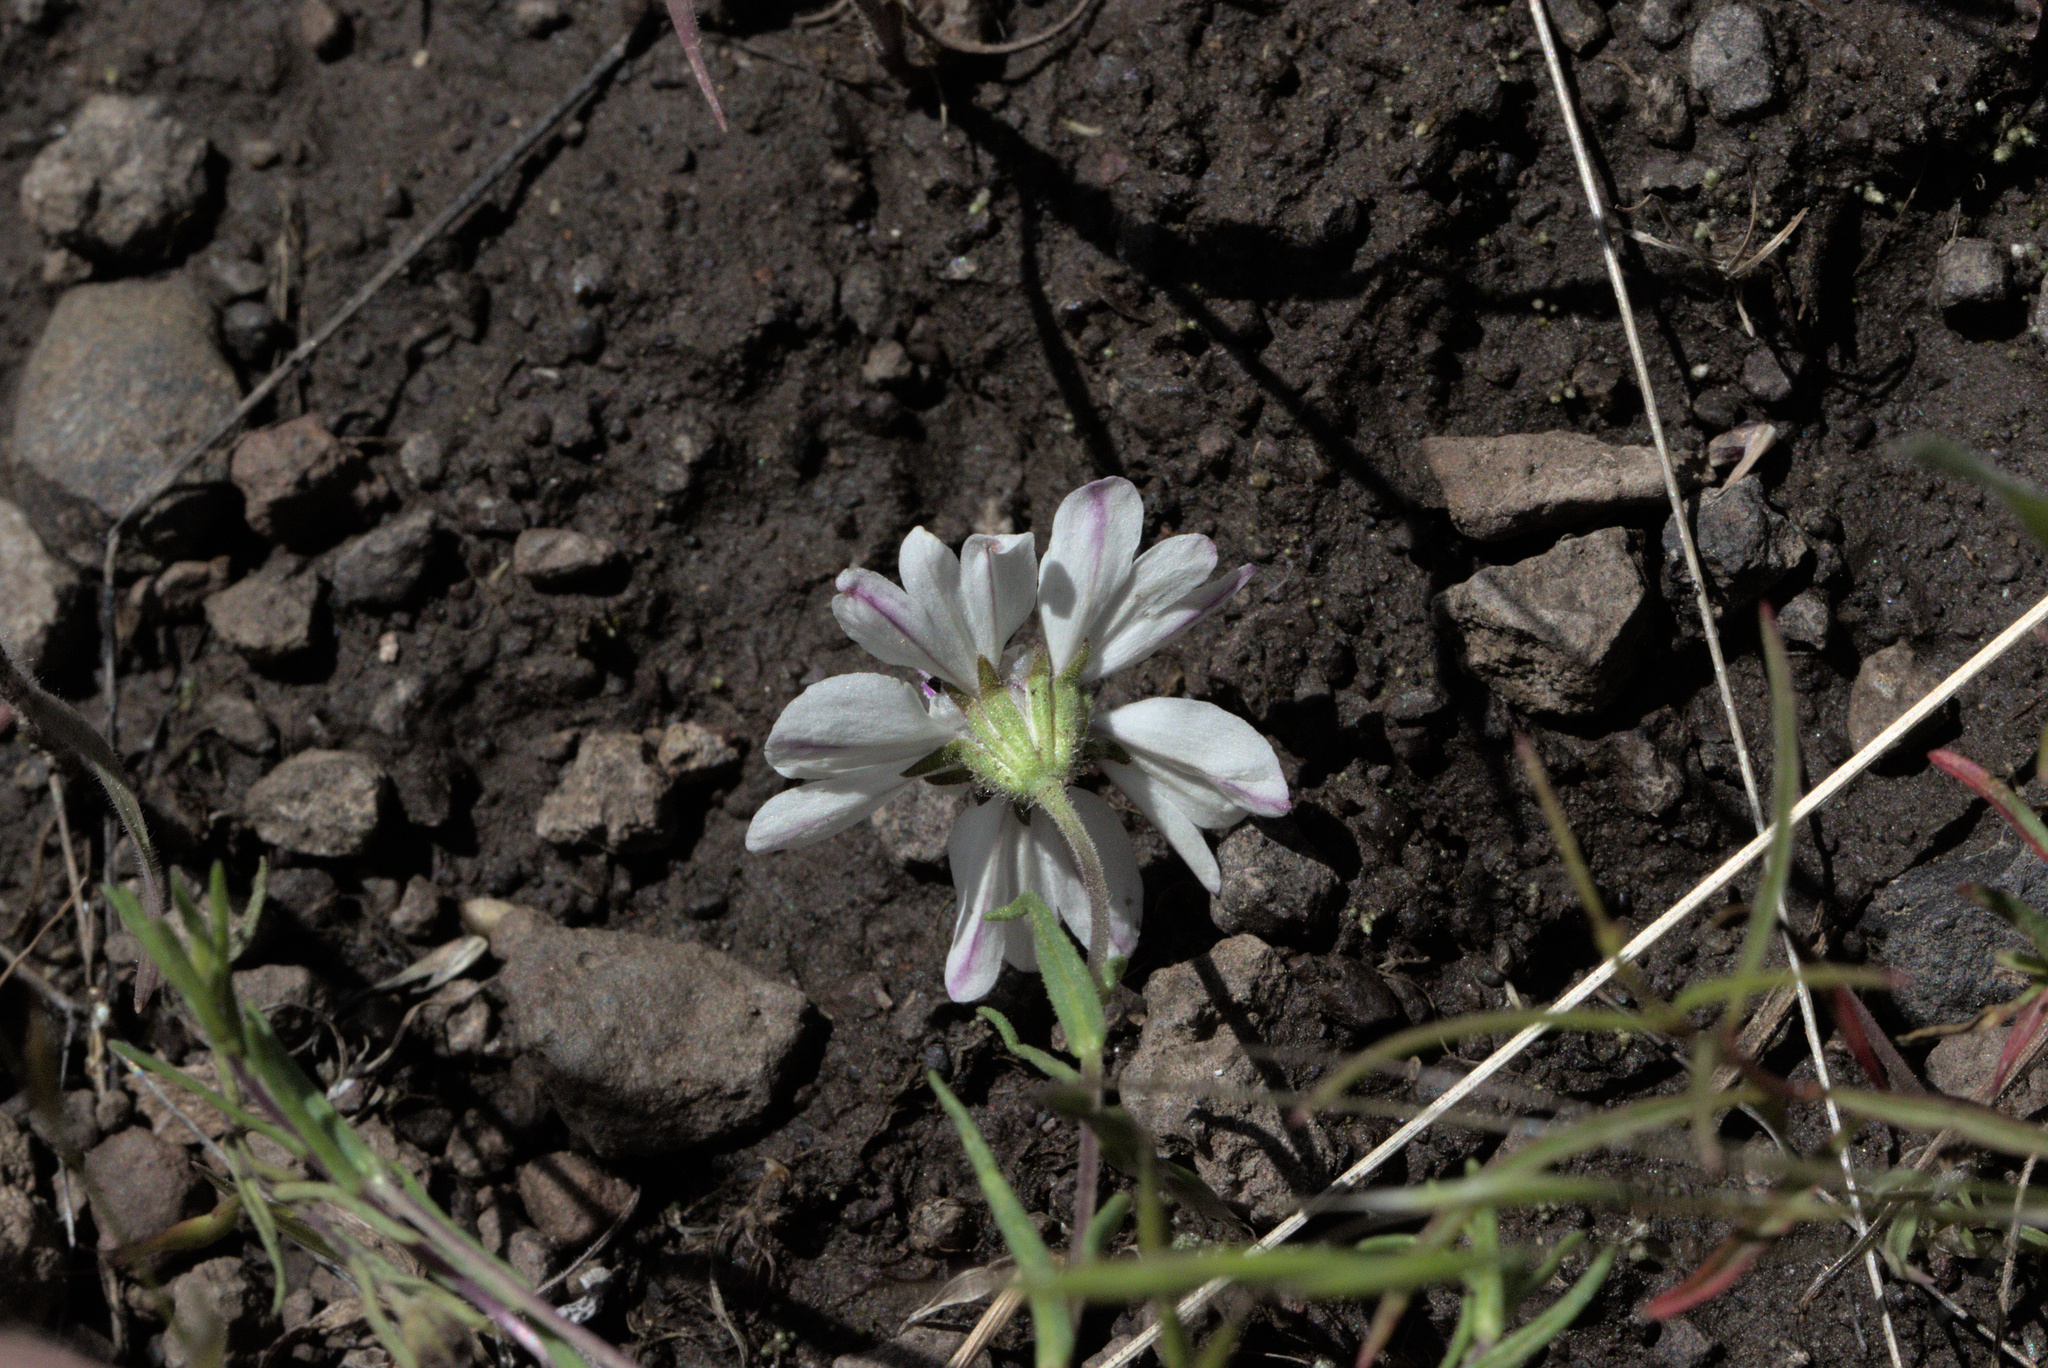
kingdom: Plantae
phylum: Tracheophyta
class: Magnoliopsida
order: Asterales
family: Asteraceae
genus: Blepharipappus
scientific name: Blepharipappus scaber
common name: Rough blepharipappus
